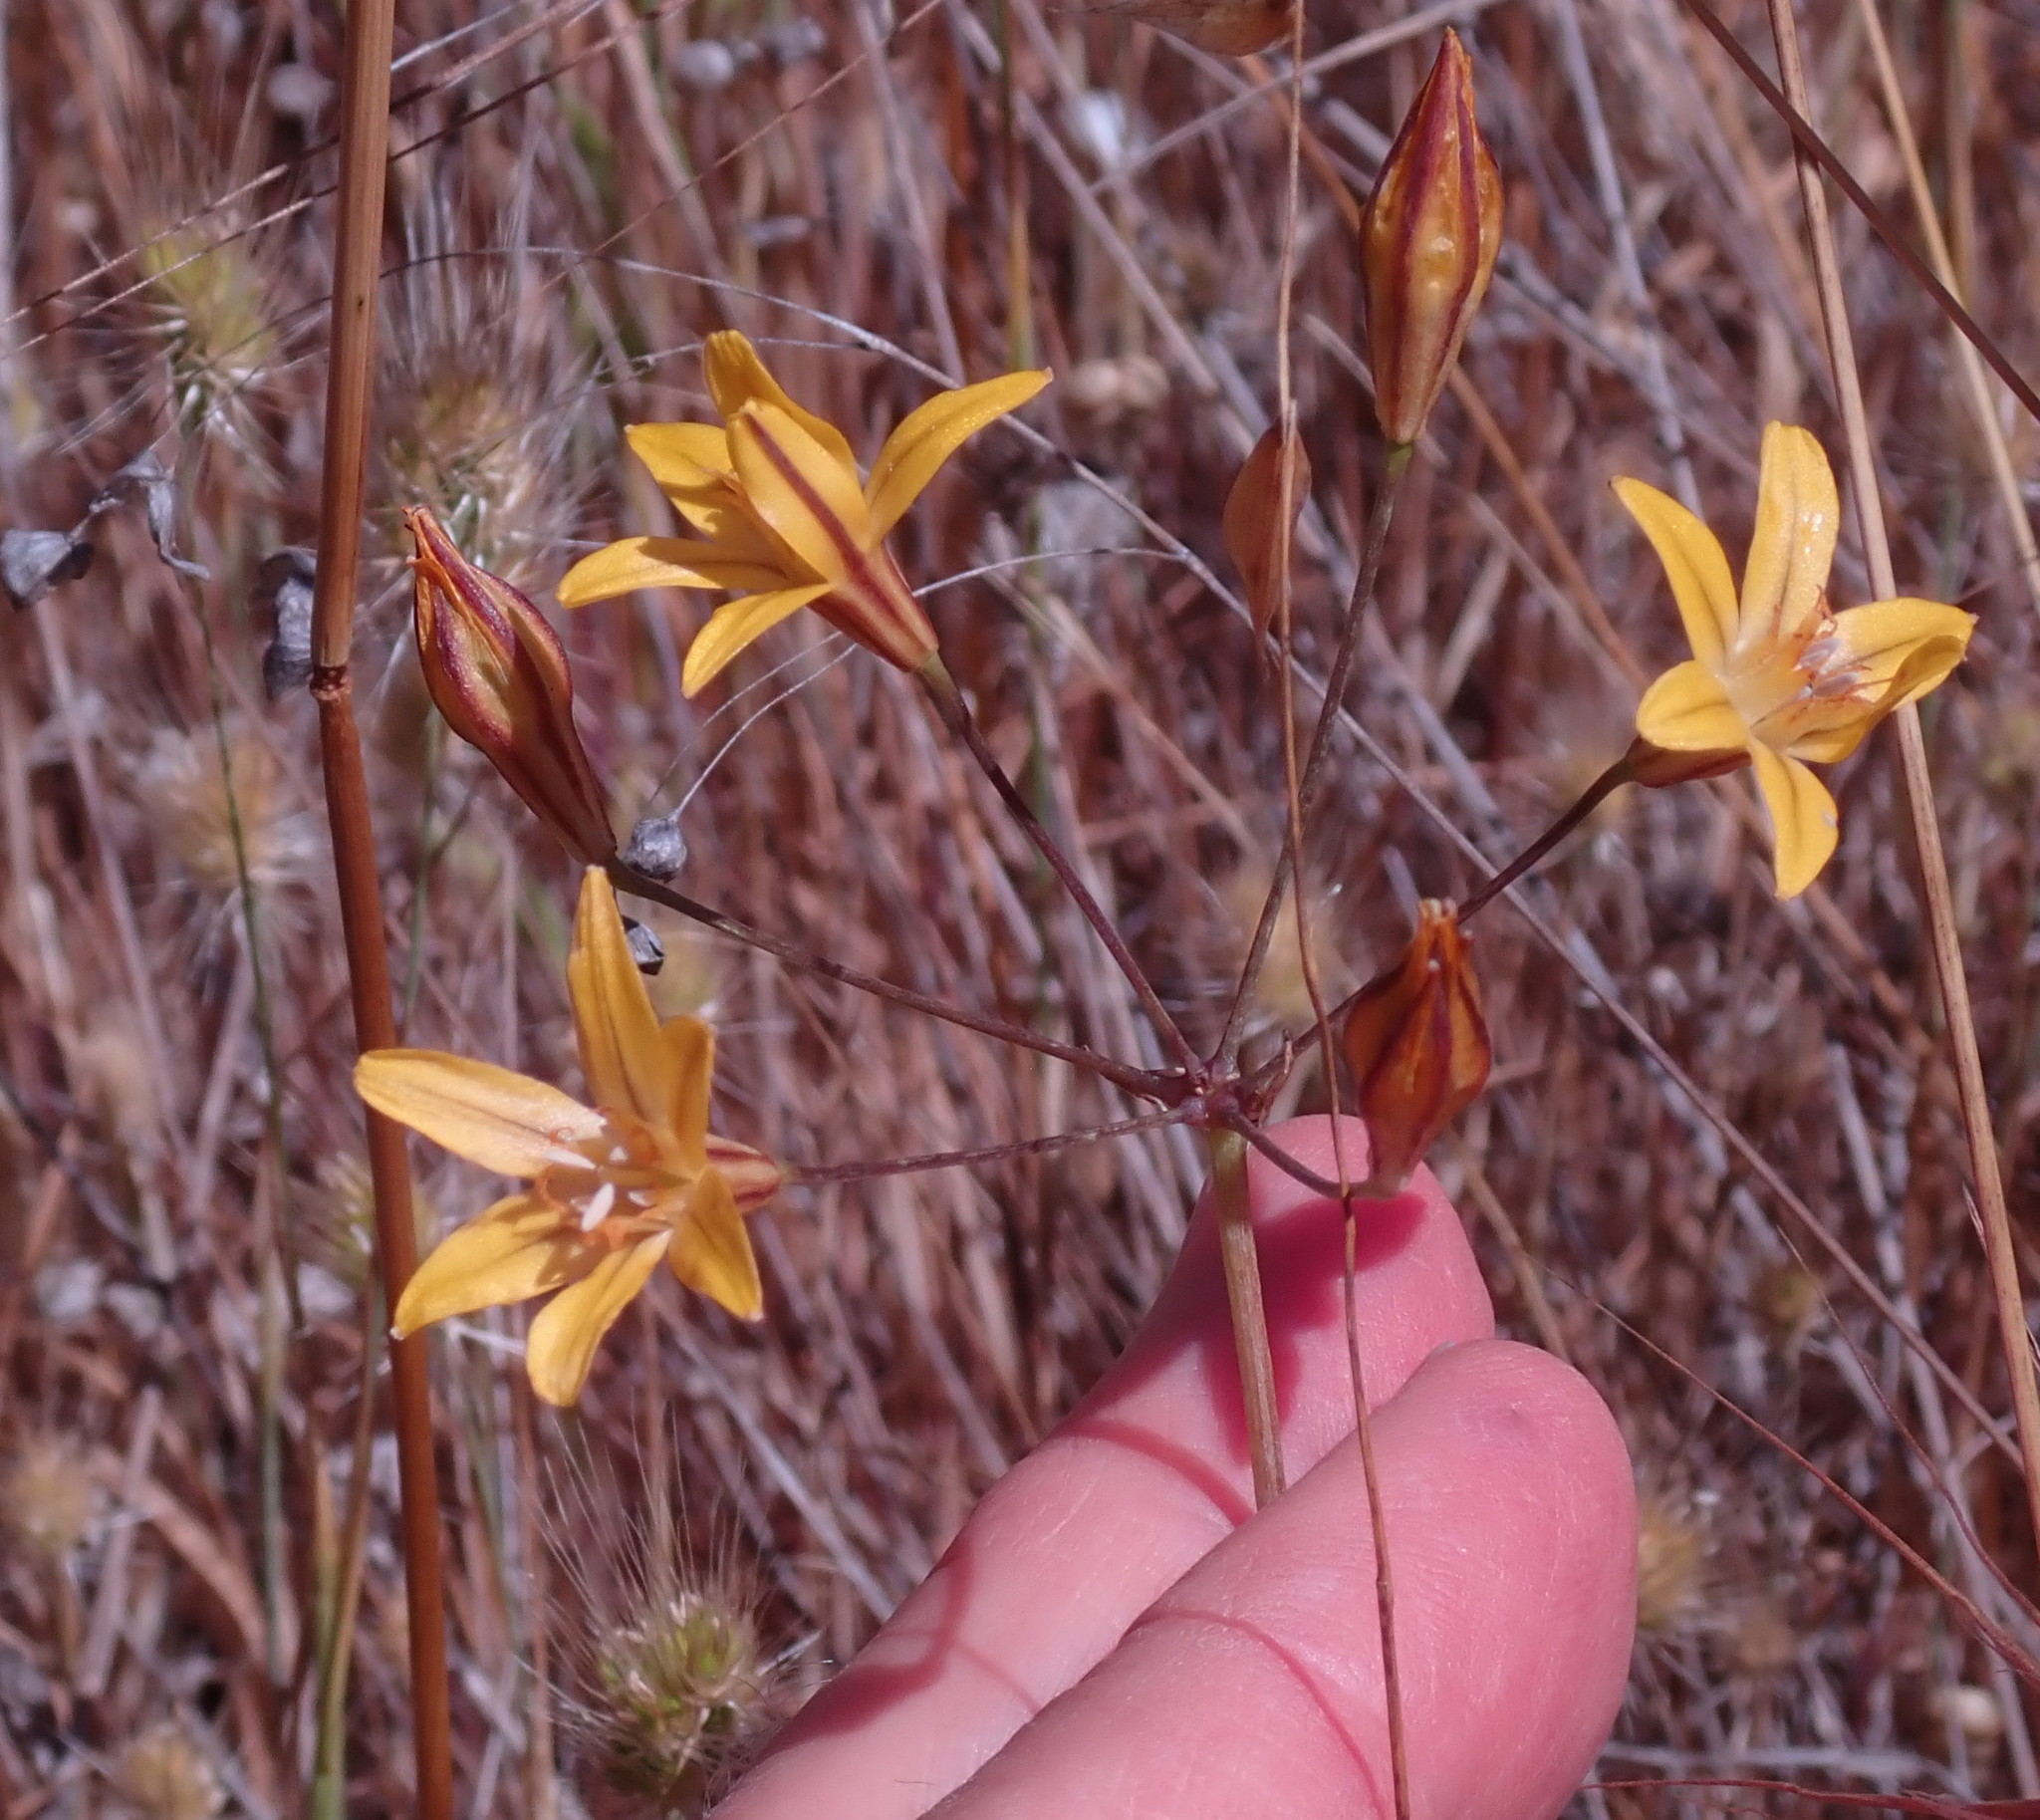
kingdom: Plantae
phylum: Tracheophyta
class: Liliopsida
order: Asparagales
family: Asparagaceae
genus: Triteleia
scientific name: Triteleia ixioides
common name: Yellow-brodiaea
